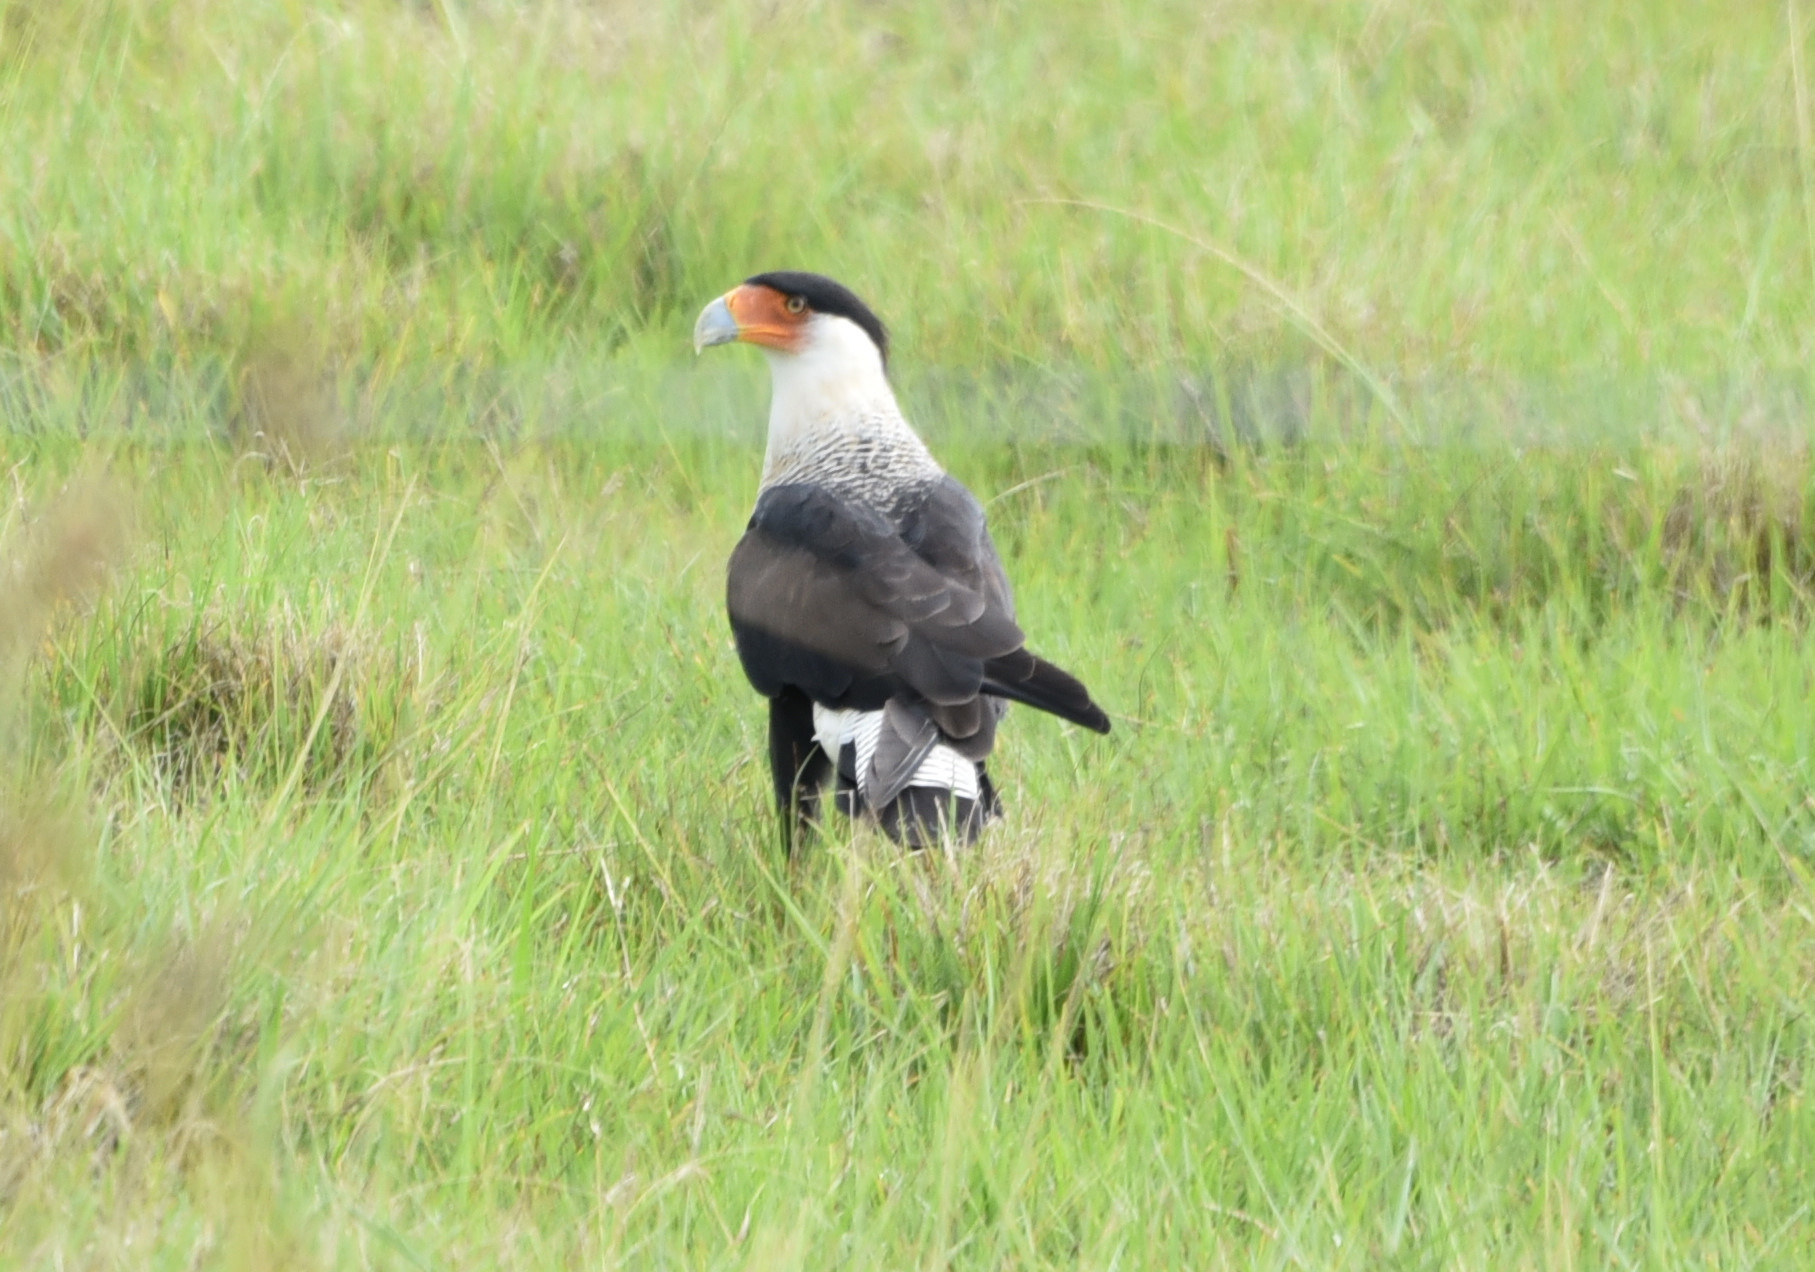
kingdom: Animalia
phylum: Chordata
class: Aves
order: Falconiformes
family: Falconidae
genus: Caracara
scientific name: Caracara plancus
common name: Southern caracara
